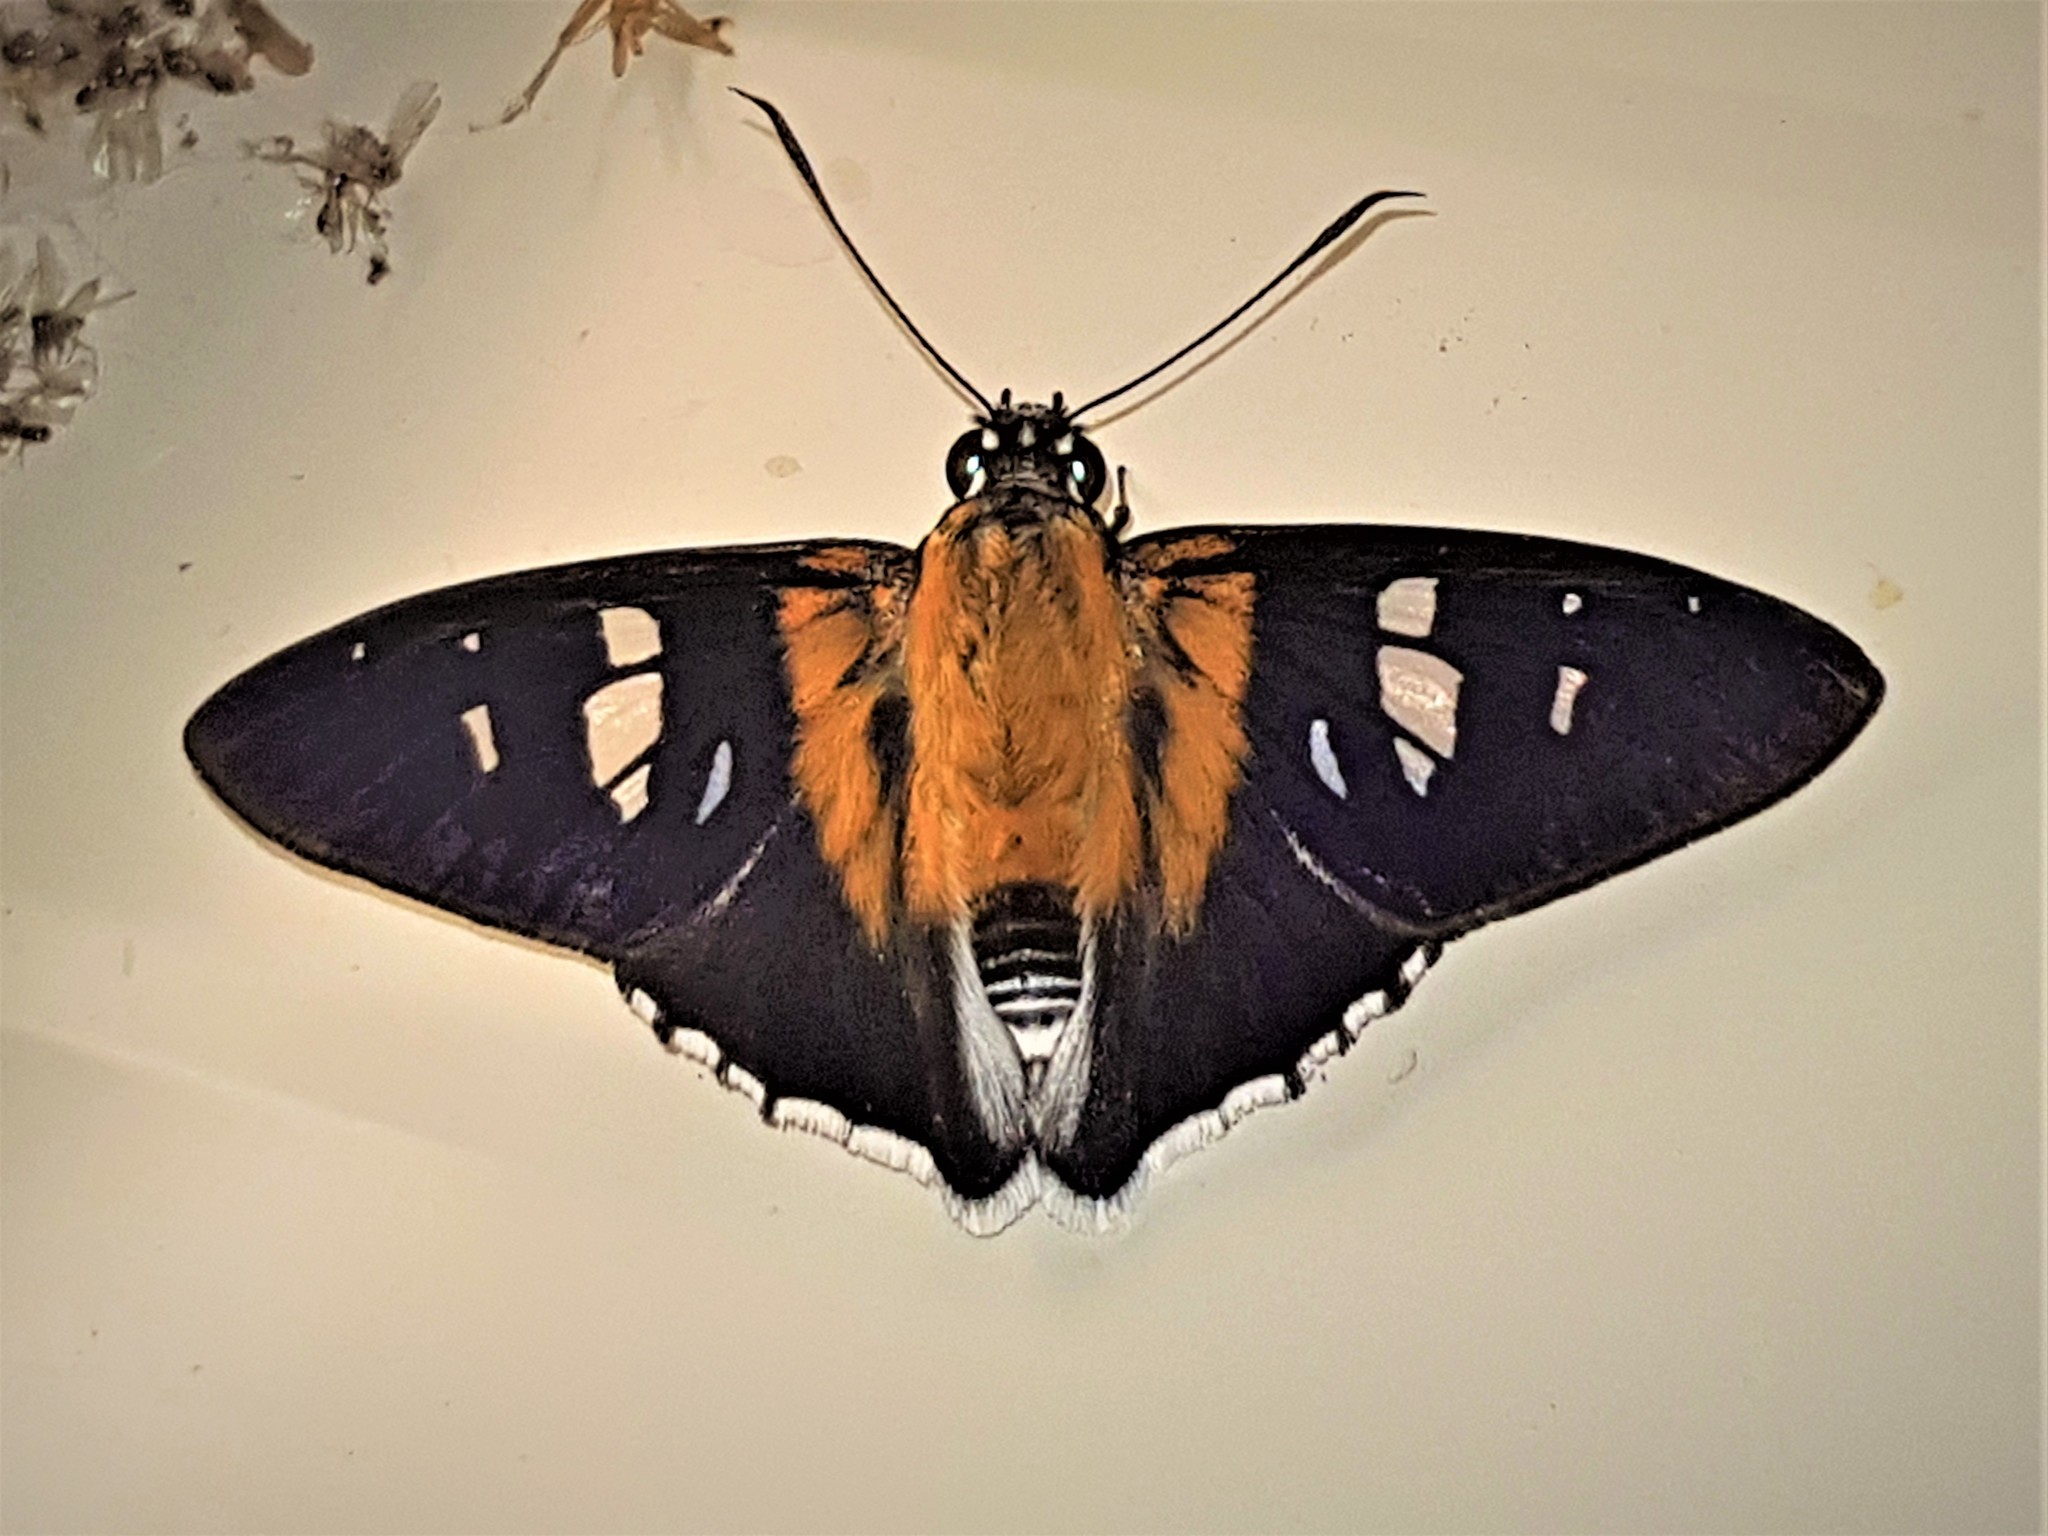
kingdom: Animalia
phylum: Arthropoda
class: Insecta
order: Lepidoptera
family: Hesperiidae
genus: Tarsoctenus
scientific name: Tarsoctenus corytus
